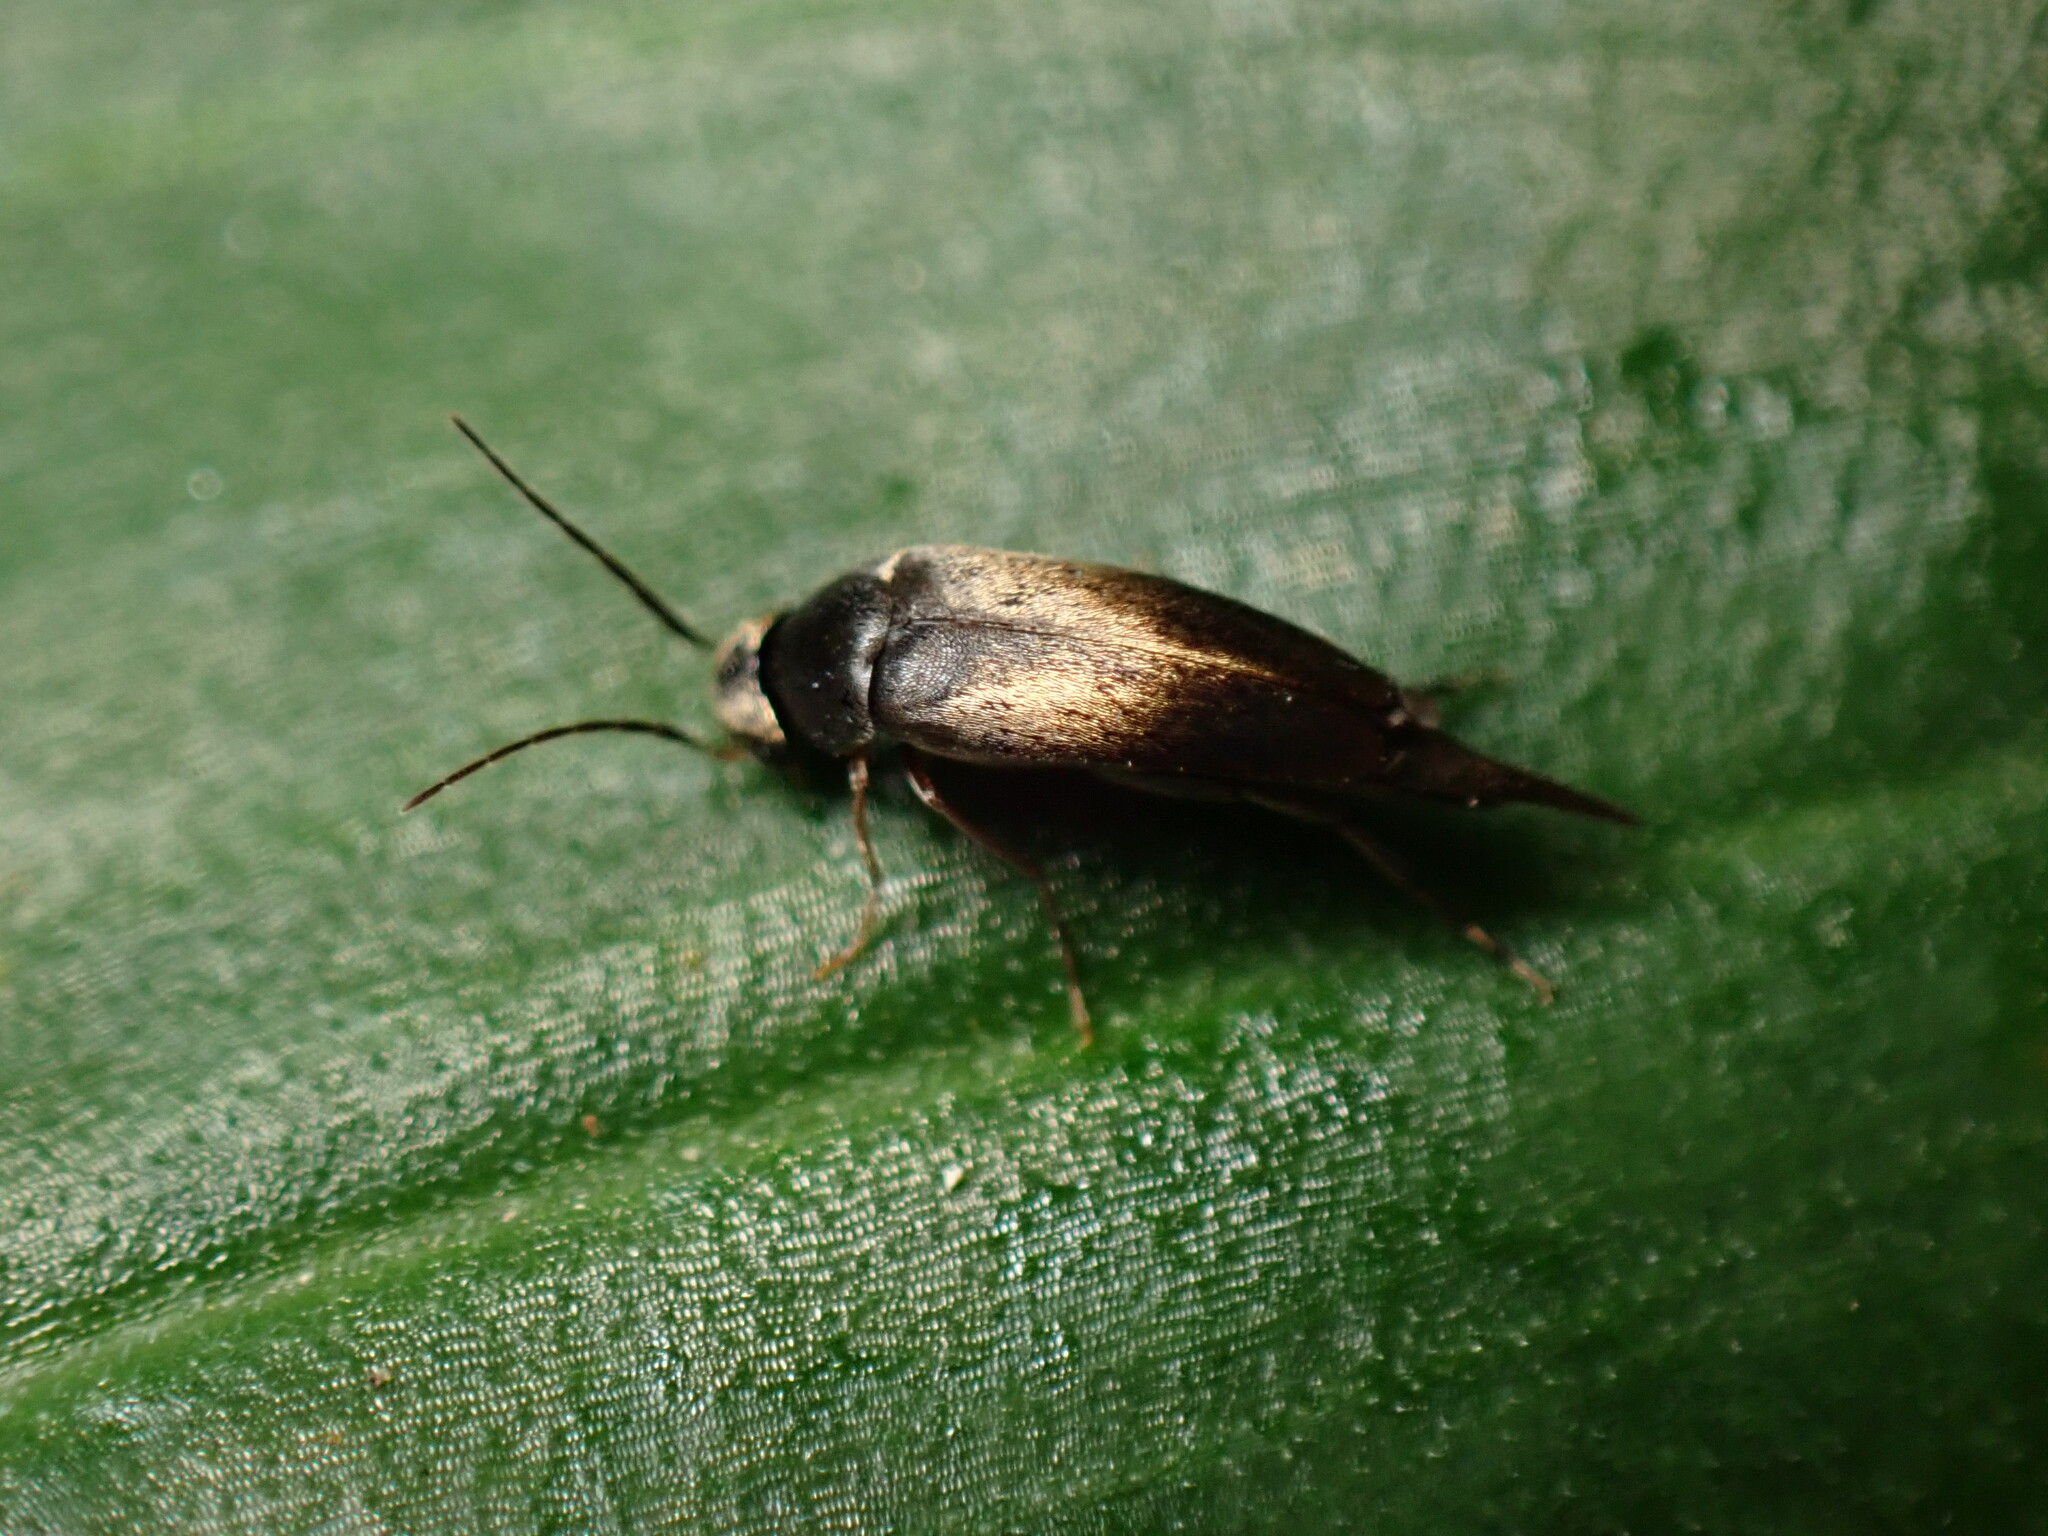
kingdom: Animalia
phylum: Arthropoda
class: Insecta
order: Coleoptera
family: Mordellidae
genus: Mordellistena
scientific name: Mordellistena vera
